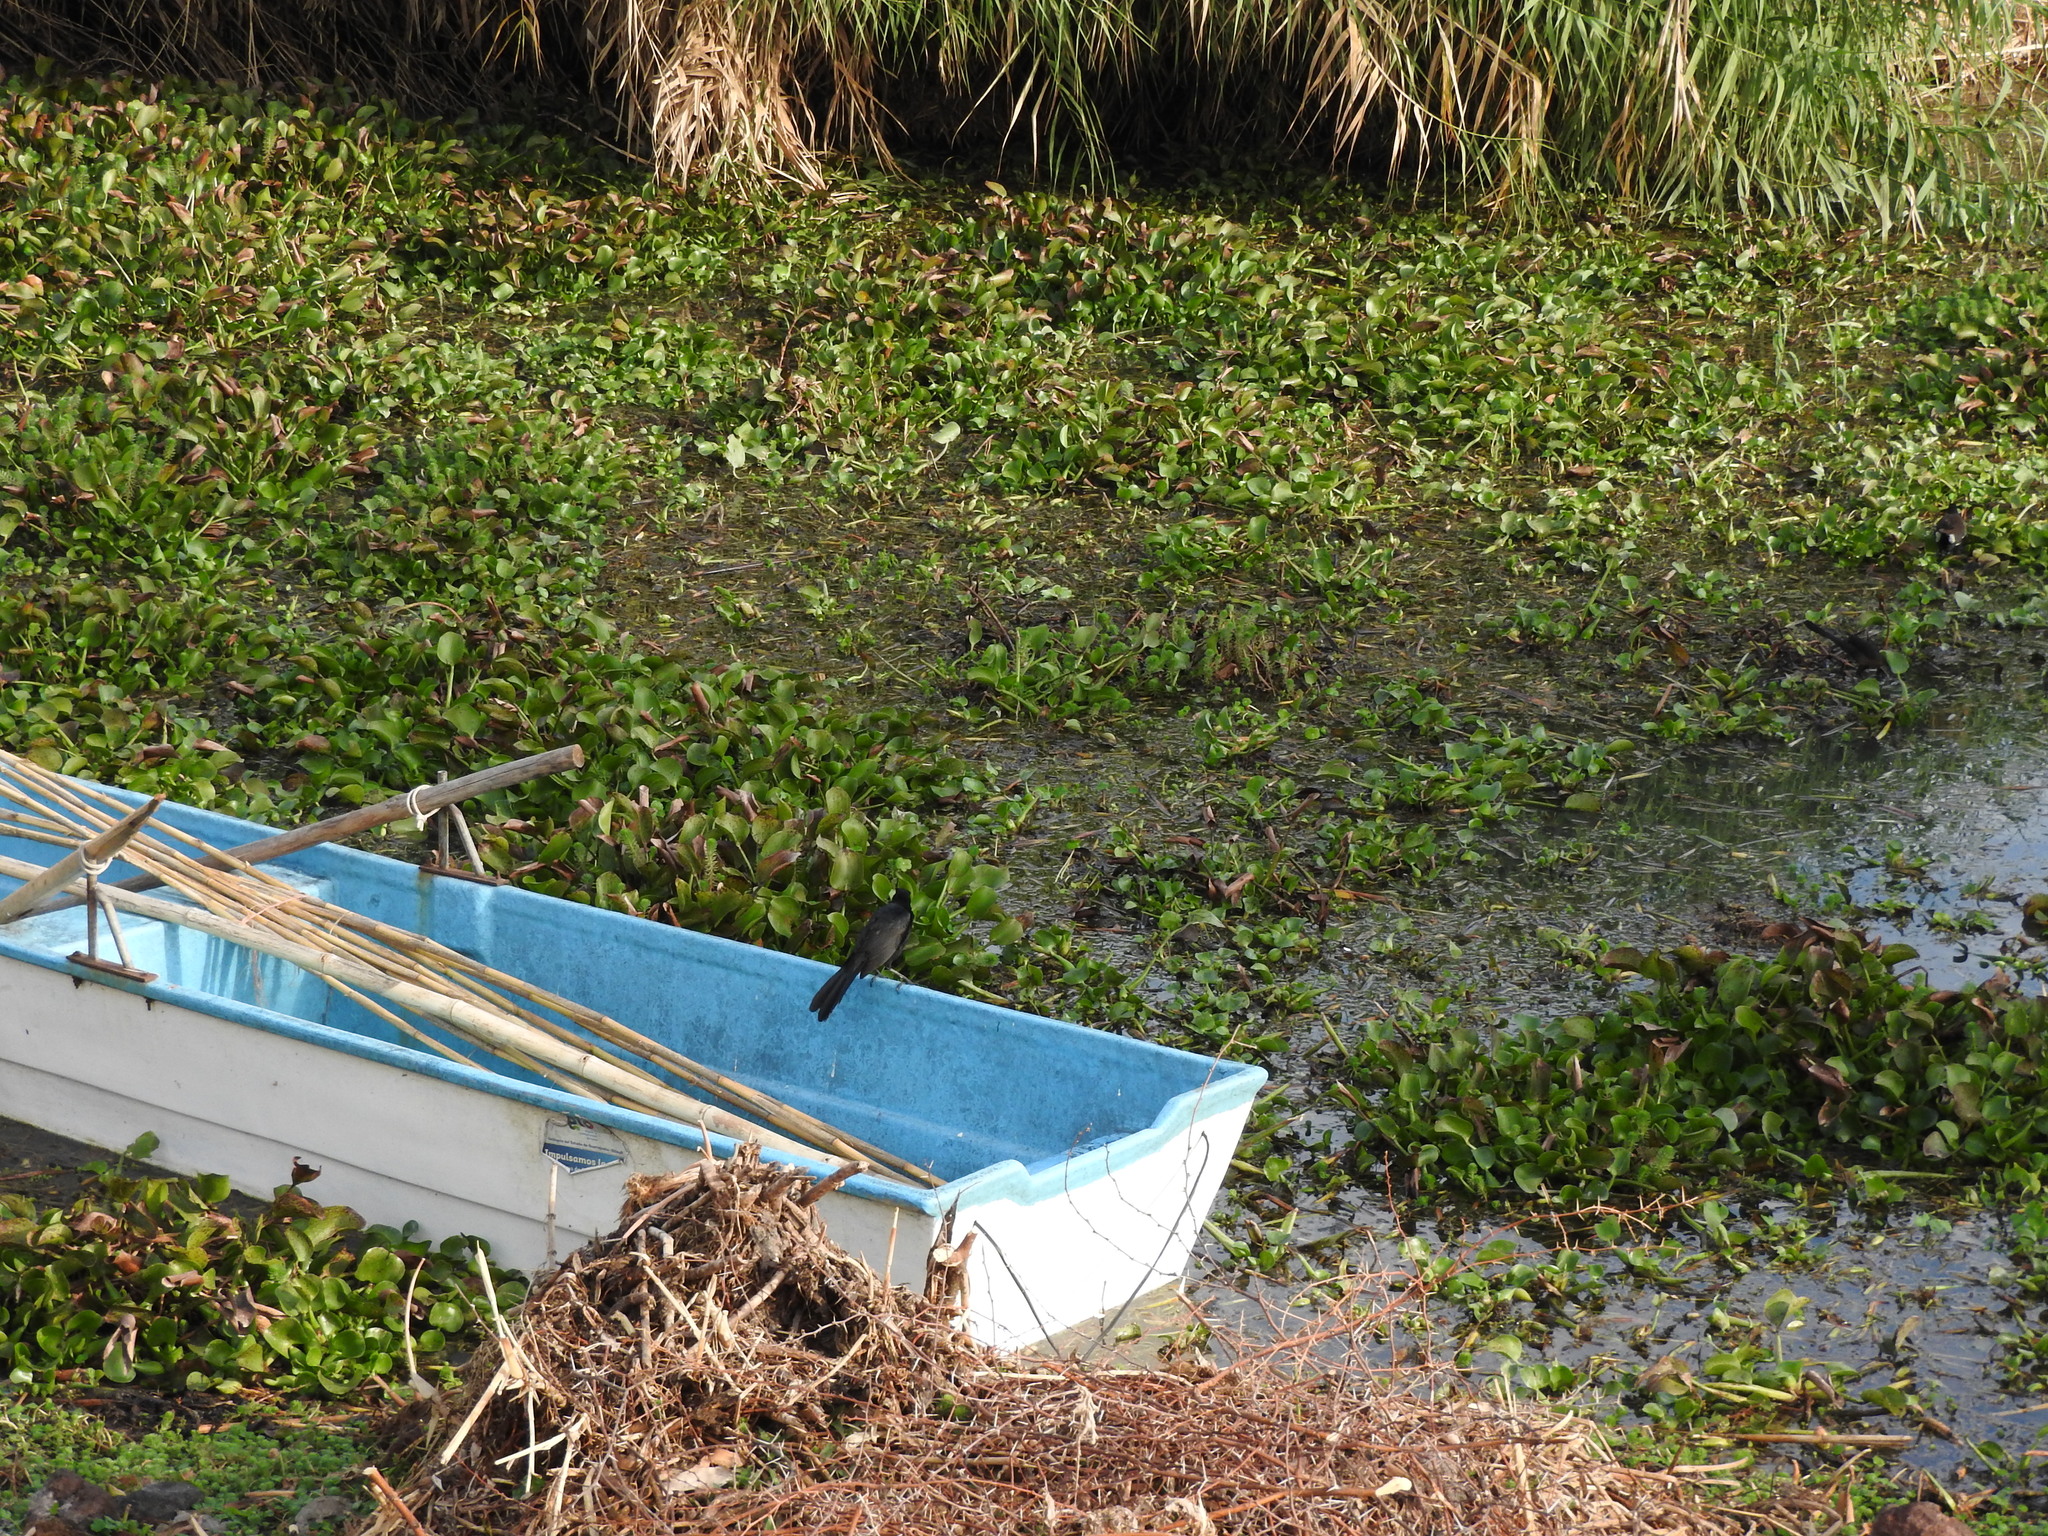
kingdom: Animalia
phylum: Chordata
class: Aves
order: Passeriformes
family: Icteridae
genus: Quiscalus
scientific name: Quiscalus mexicanus
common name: Great-tailed grackle
